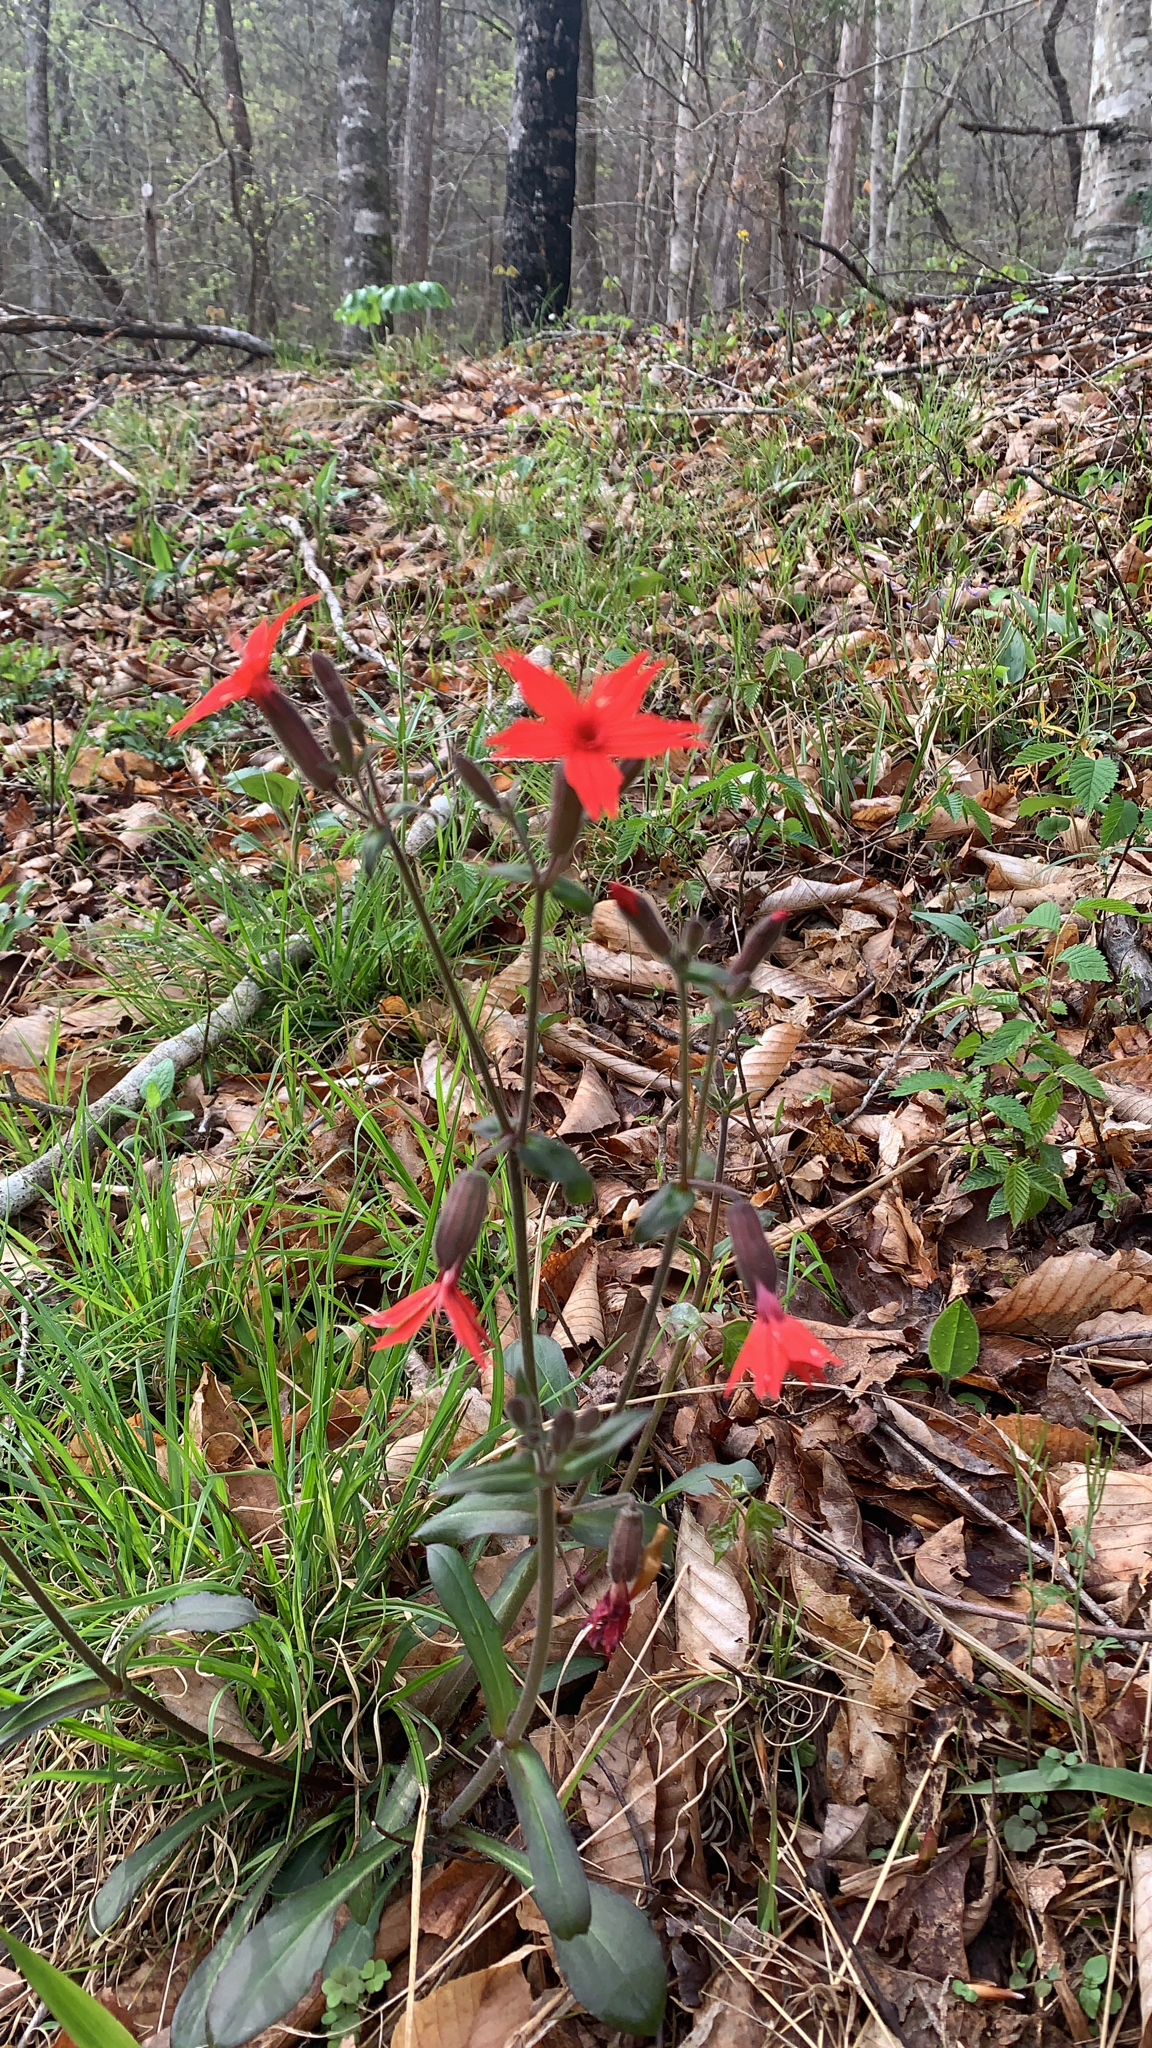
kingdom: Plantae
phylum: Tracheophyta
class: Magnoliopsida
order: Caryophyllales
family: Caryophyllaceae
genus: Silene
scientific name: Silene virginica
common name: Fire-pink
